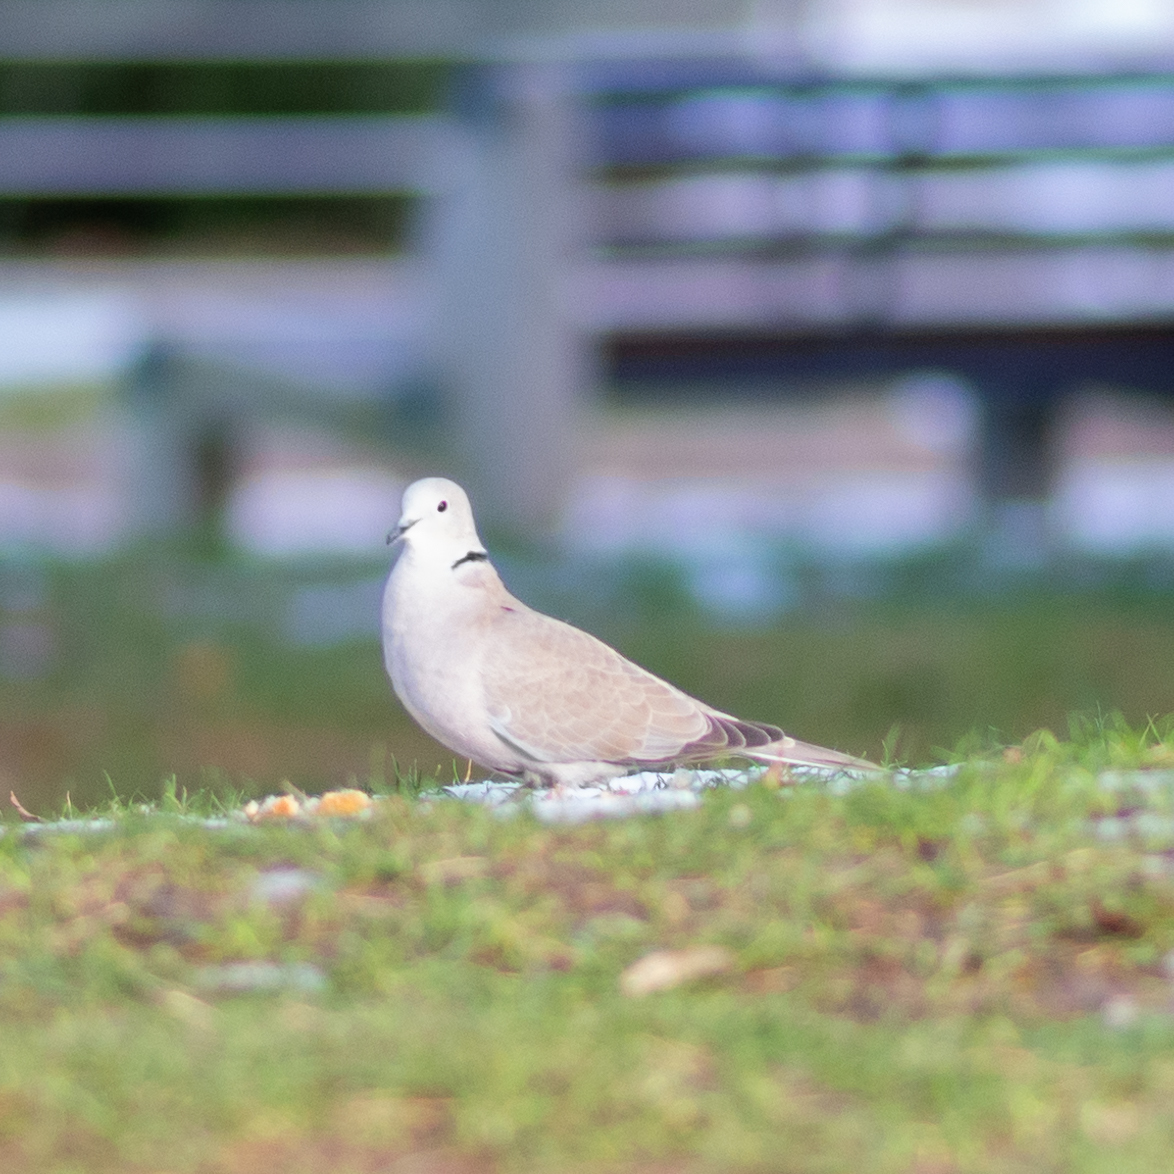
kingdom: Animalia
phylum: Chordata
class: Aves
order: Columbiformes
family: Columbidae
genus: Streptopelia
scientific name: Streptopelia decaocto
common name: Eurasian collared dove
